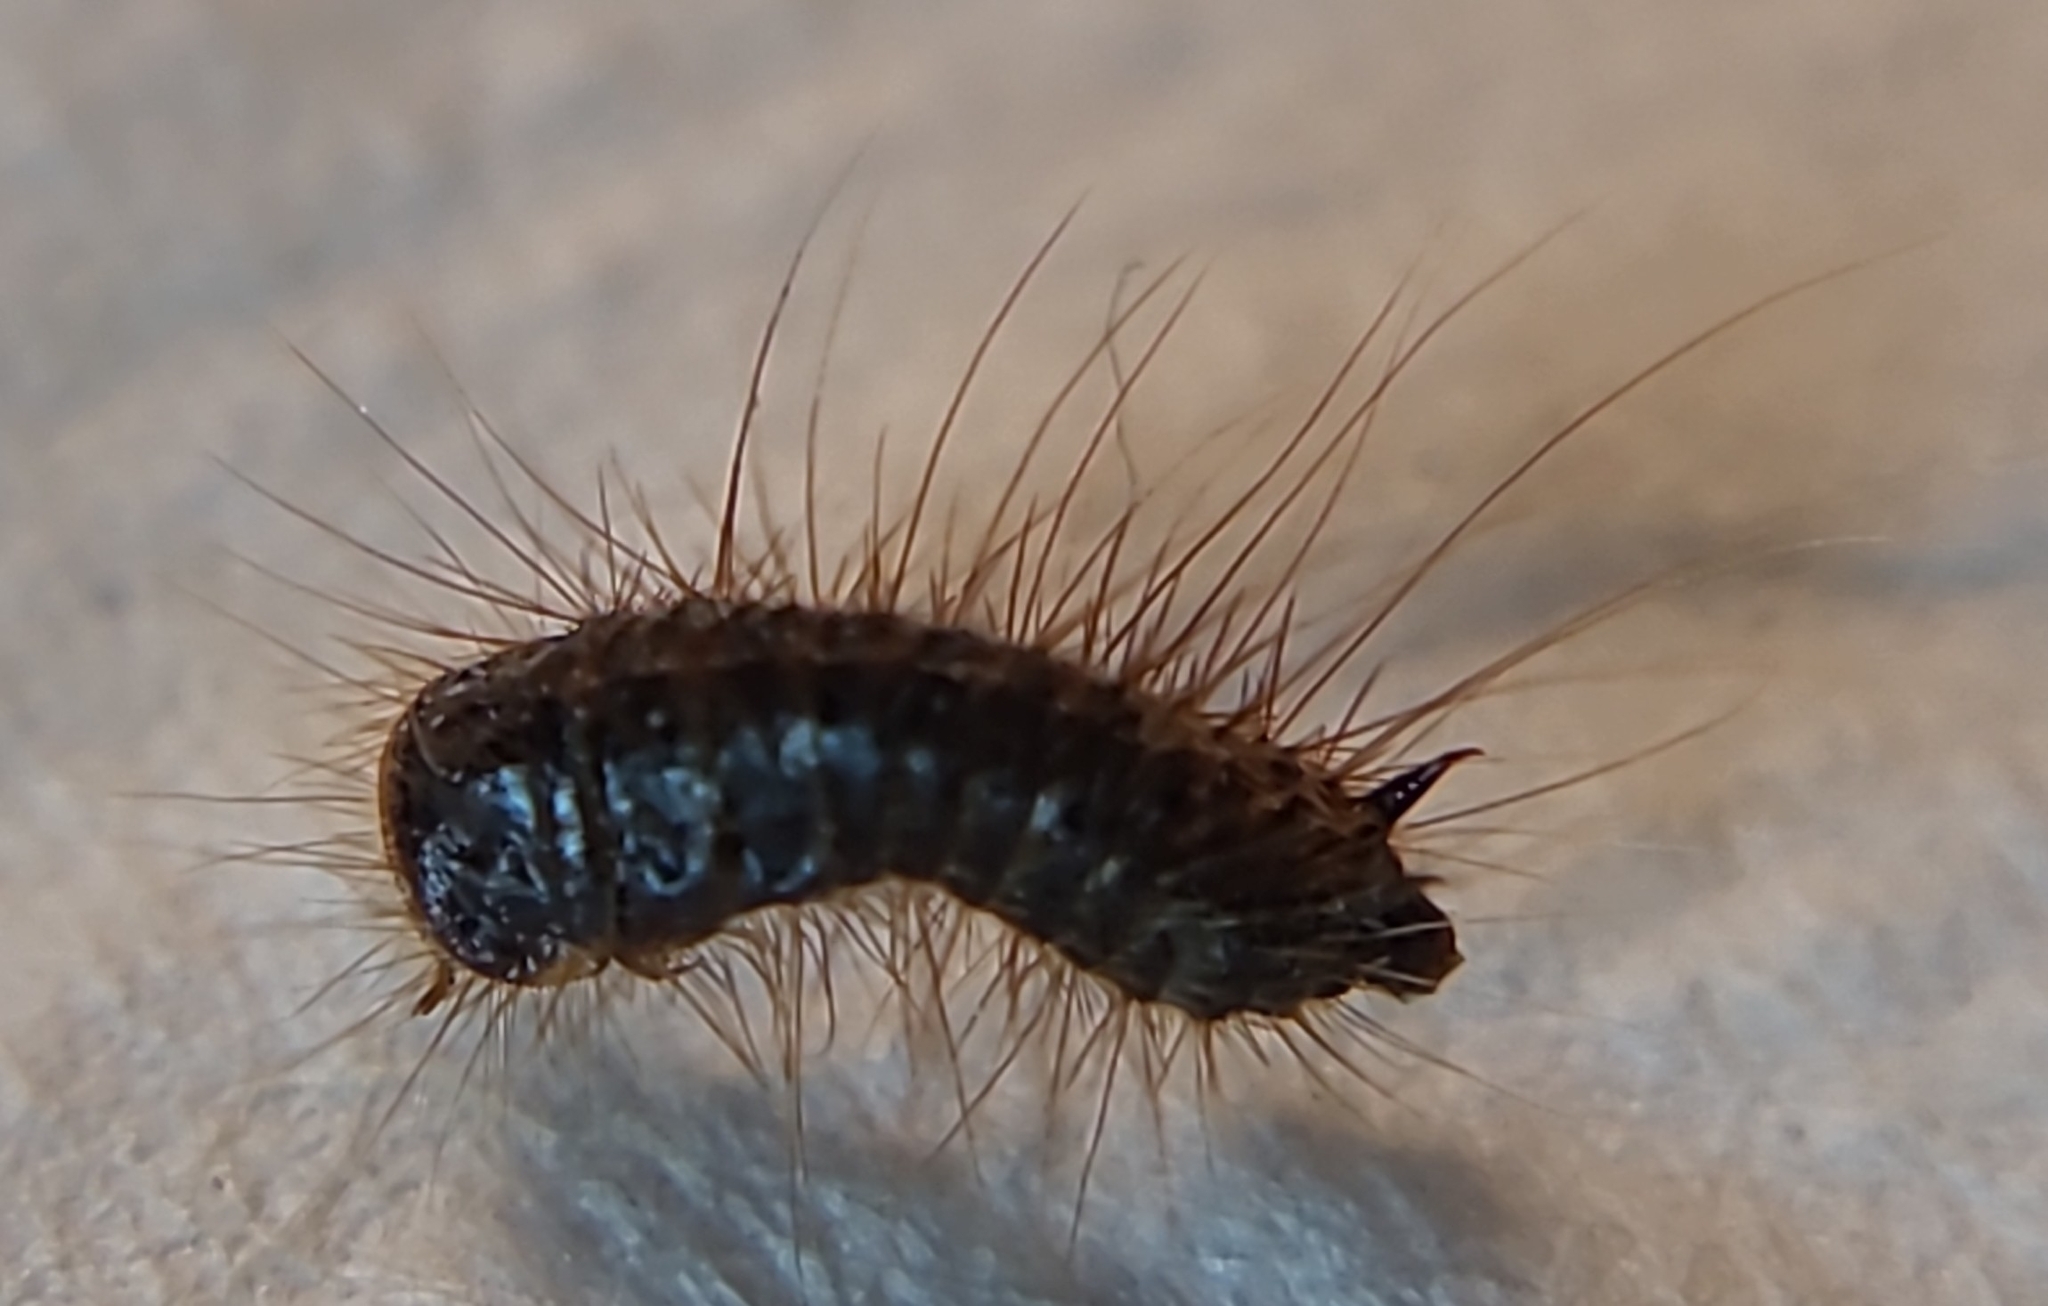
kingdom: Animalia
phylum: Arthropoda
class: Insecta
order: Coleoptera
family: Dermestidae
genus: Dermestes
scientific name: Dermestes lardarius
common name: Larder beetle
